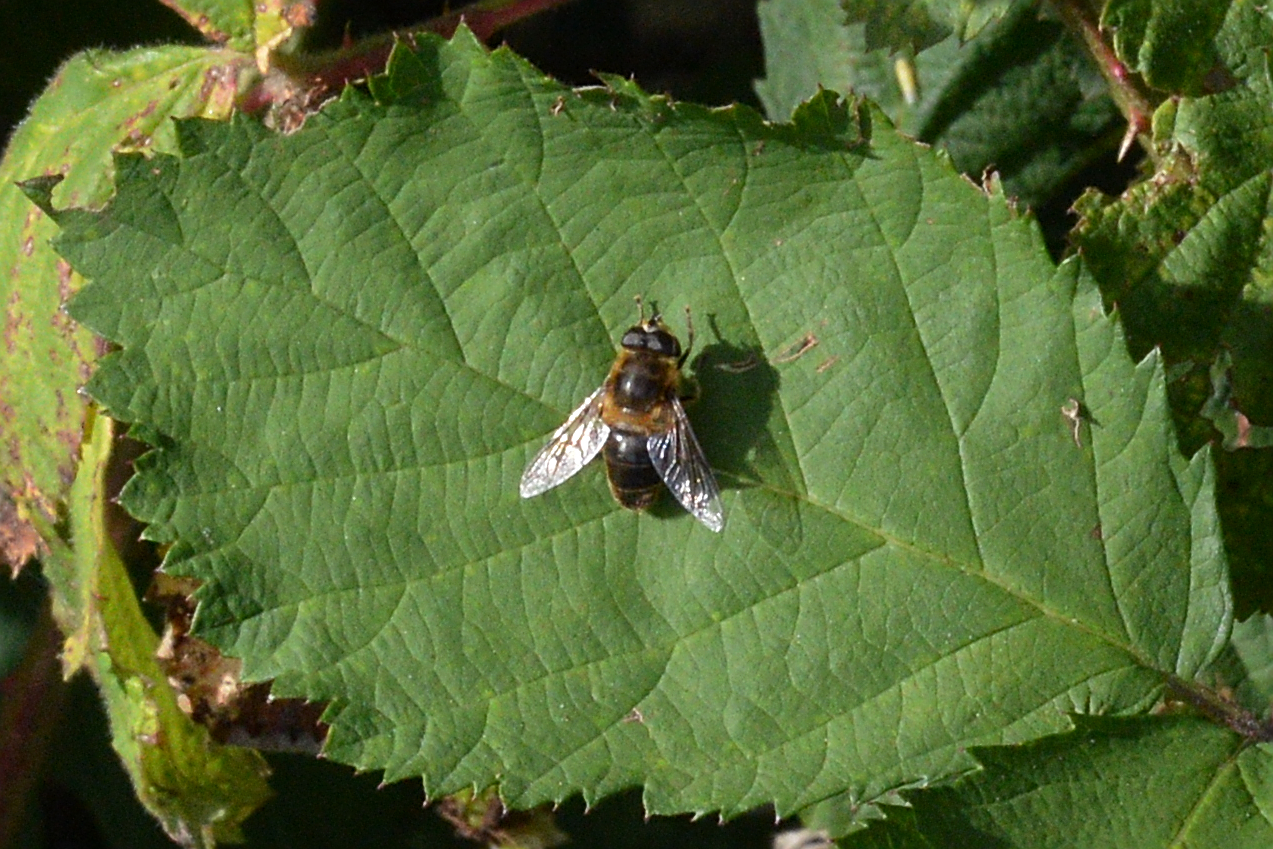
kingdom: Animalia
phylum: Arthropoda
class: Insecta
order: Diptera
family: Syrphidae
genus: Eristalis
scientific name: Eristalis tenax
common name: Drone fly
